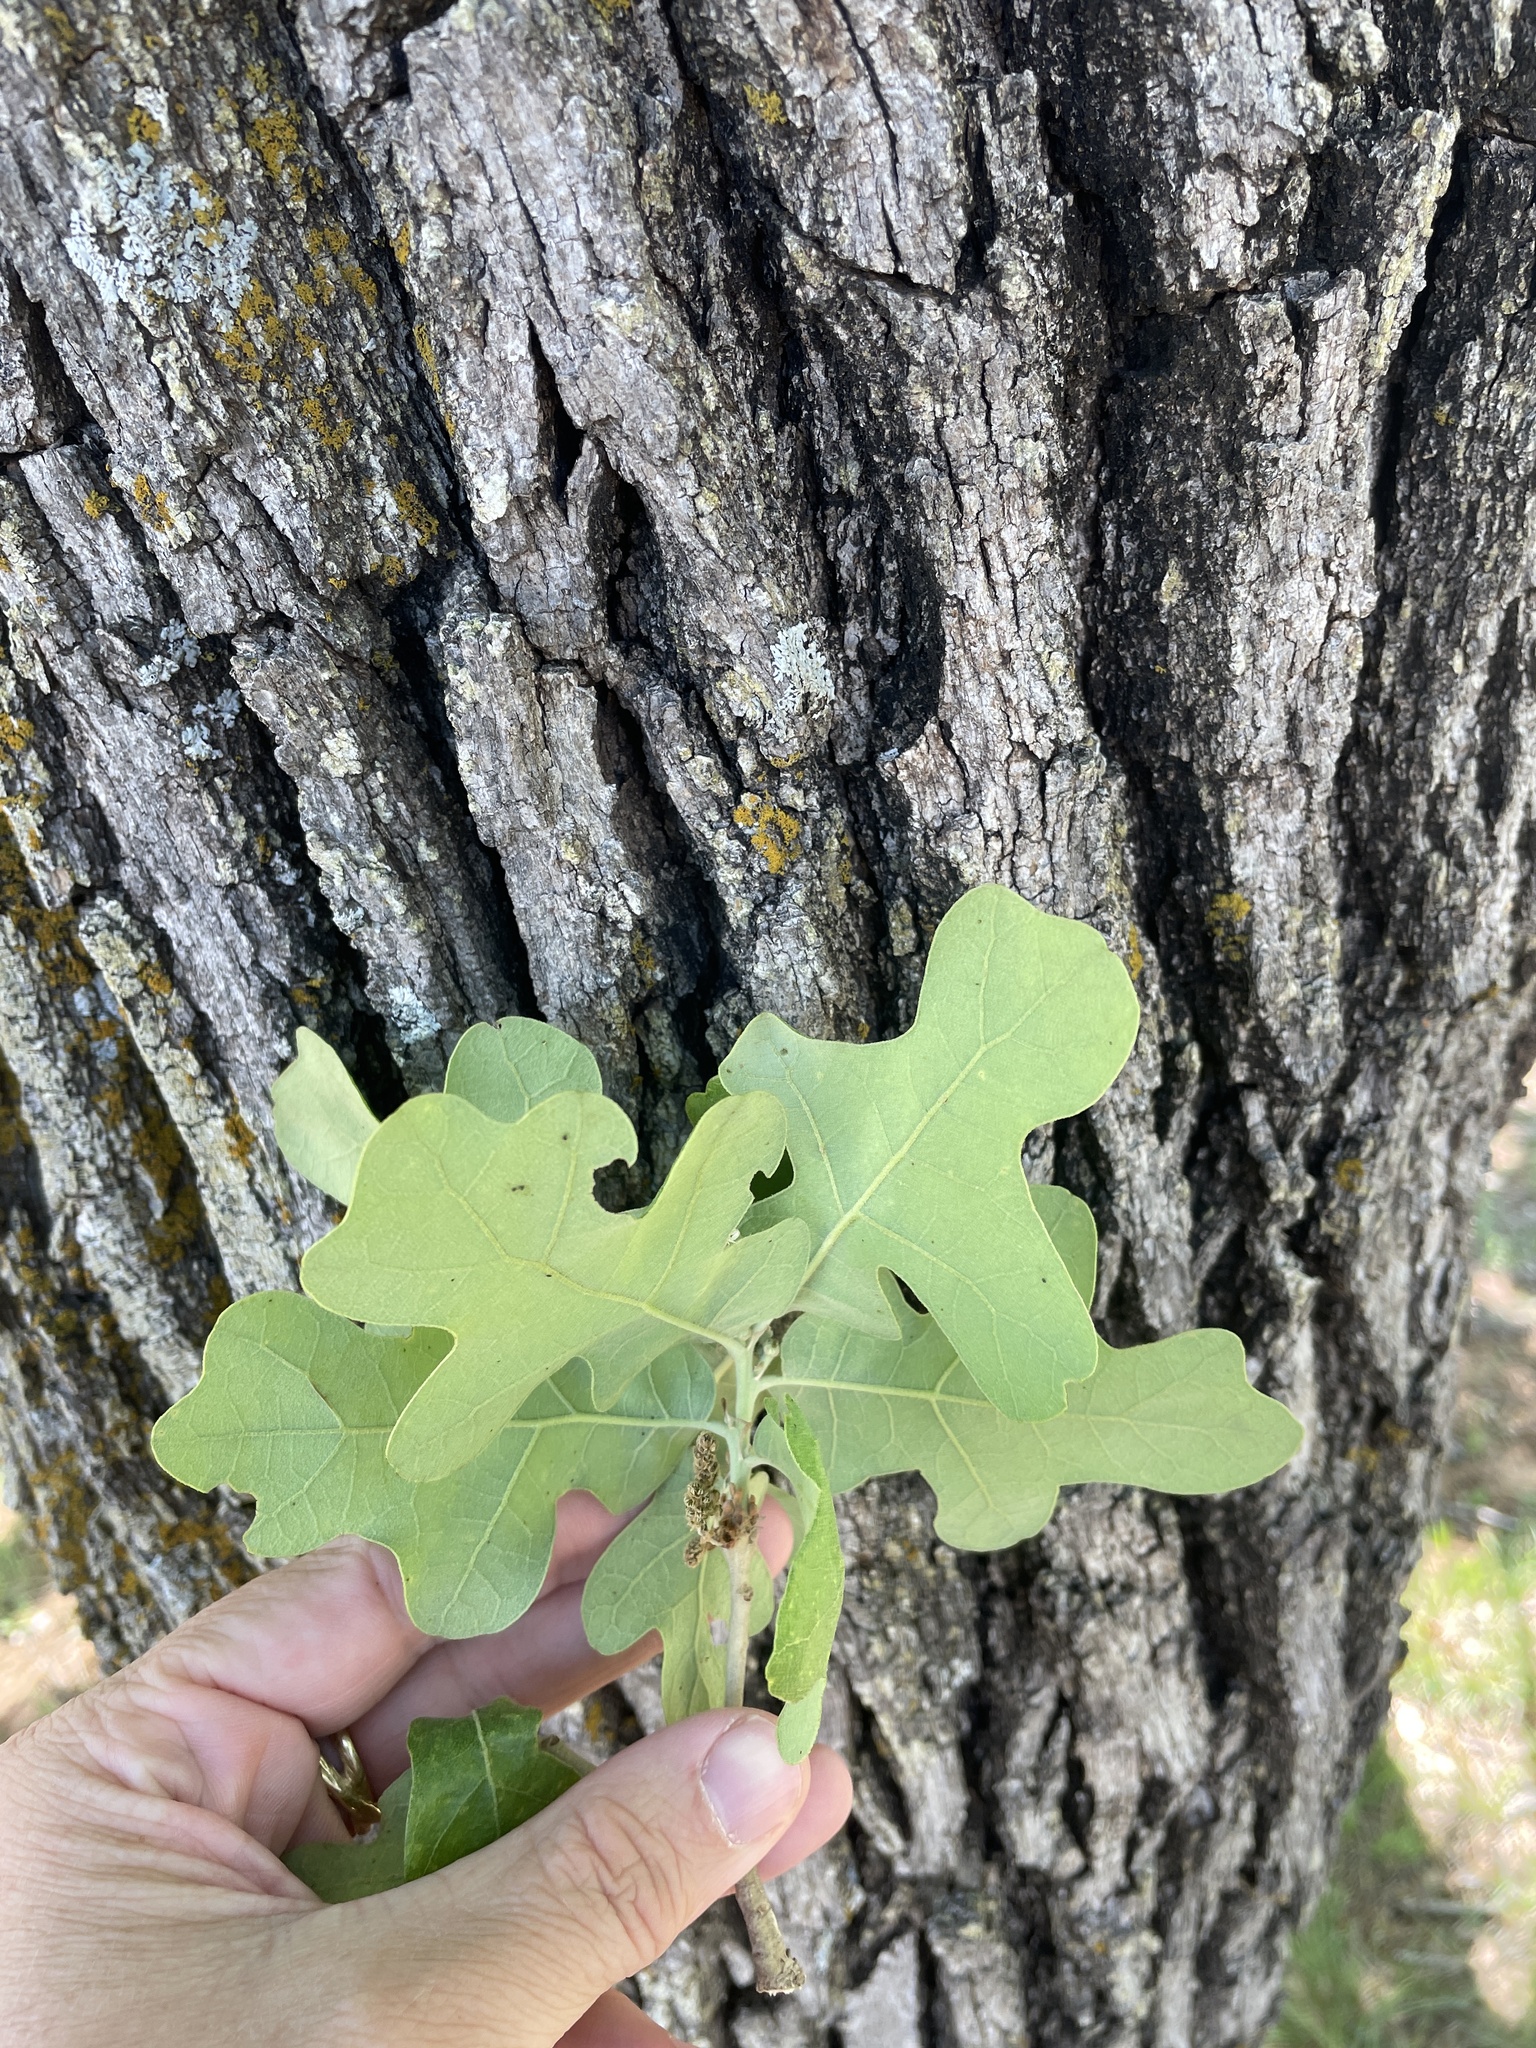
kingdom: Plantae
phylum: Tracheophyta
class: Magnoliopsida
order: Fagales
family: Fagaceae
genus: Quercus
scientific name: Quercus stellata
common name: Post oak
